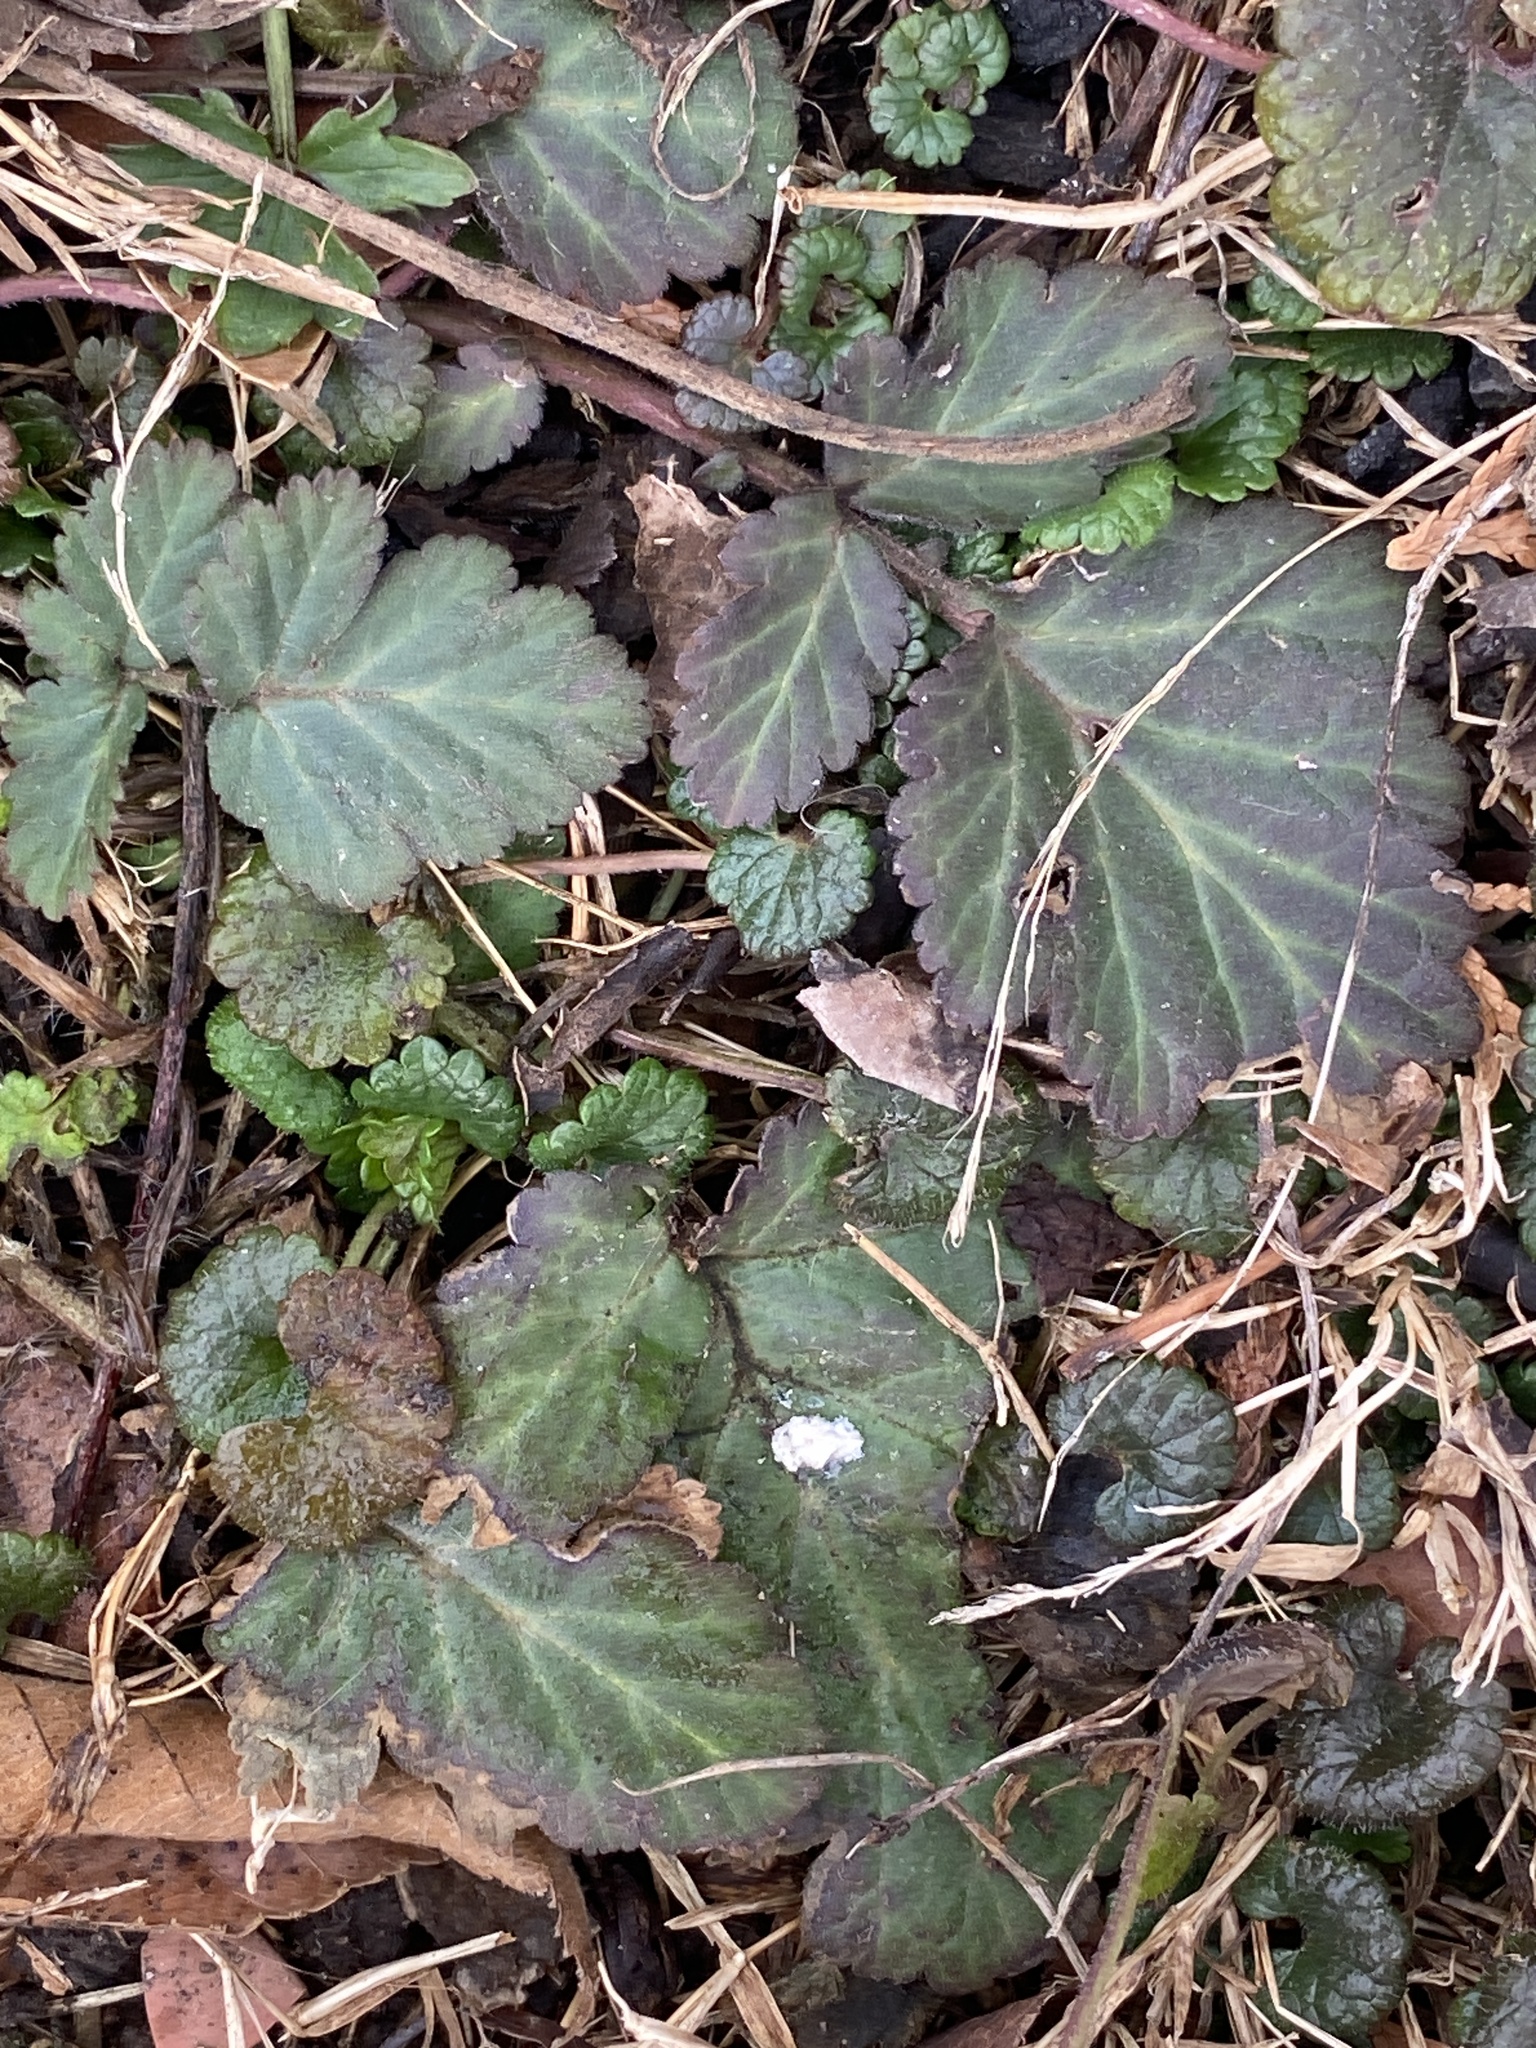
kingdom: Plantae
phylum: Tracheophyta
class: Magnoliopsida
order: Rosales
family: Rosaceae
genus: Geum
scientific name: Geum canadense
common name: White avens
